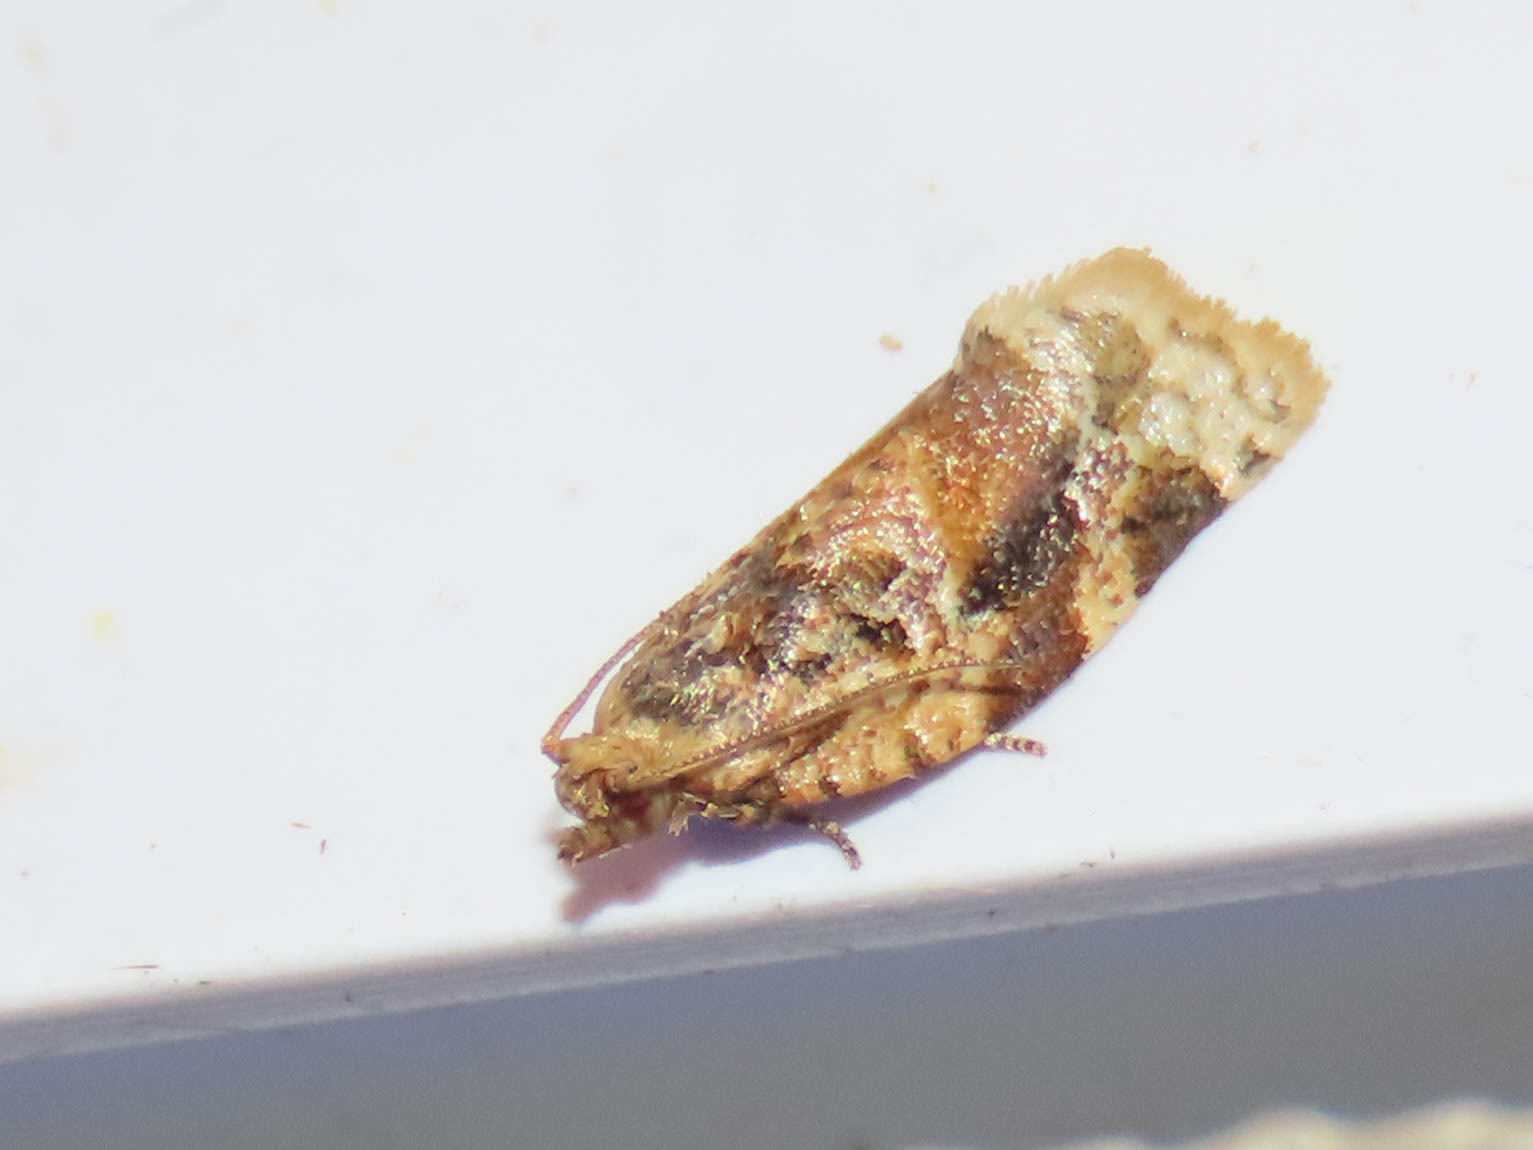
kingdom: Animalia
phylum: Arthropoda
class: Insecta
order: Lepidoptera
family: Tortricidae
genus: Argyrotaenia
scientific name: Argyrotaenia velutinana
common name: Red-banded leafroller moth
